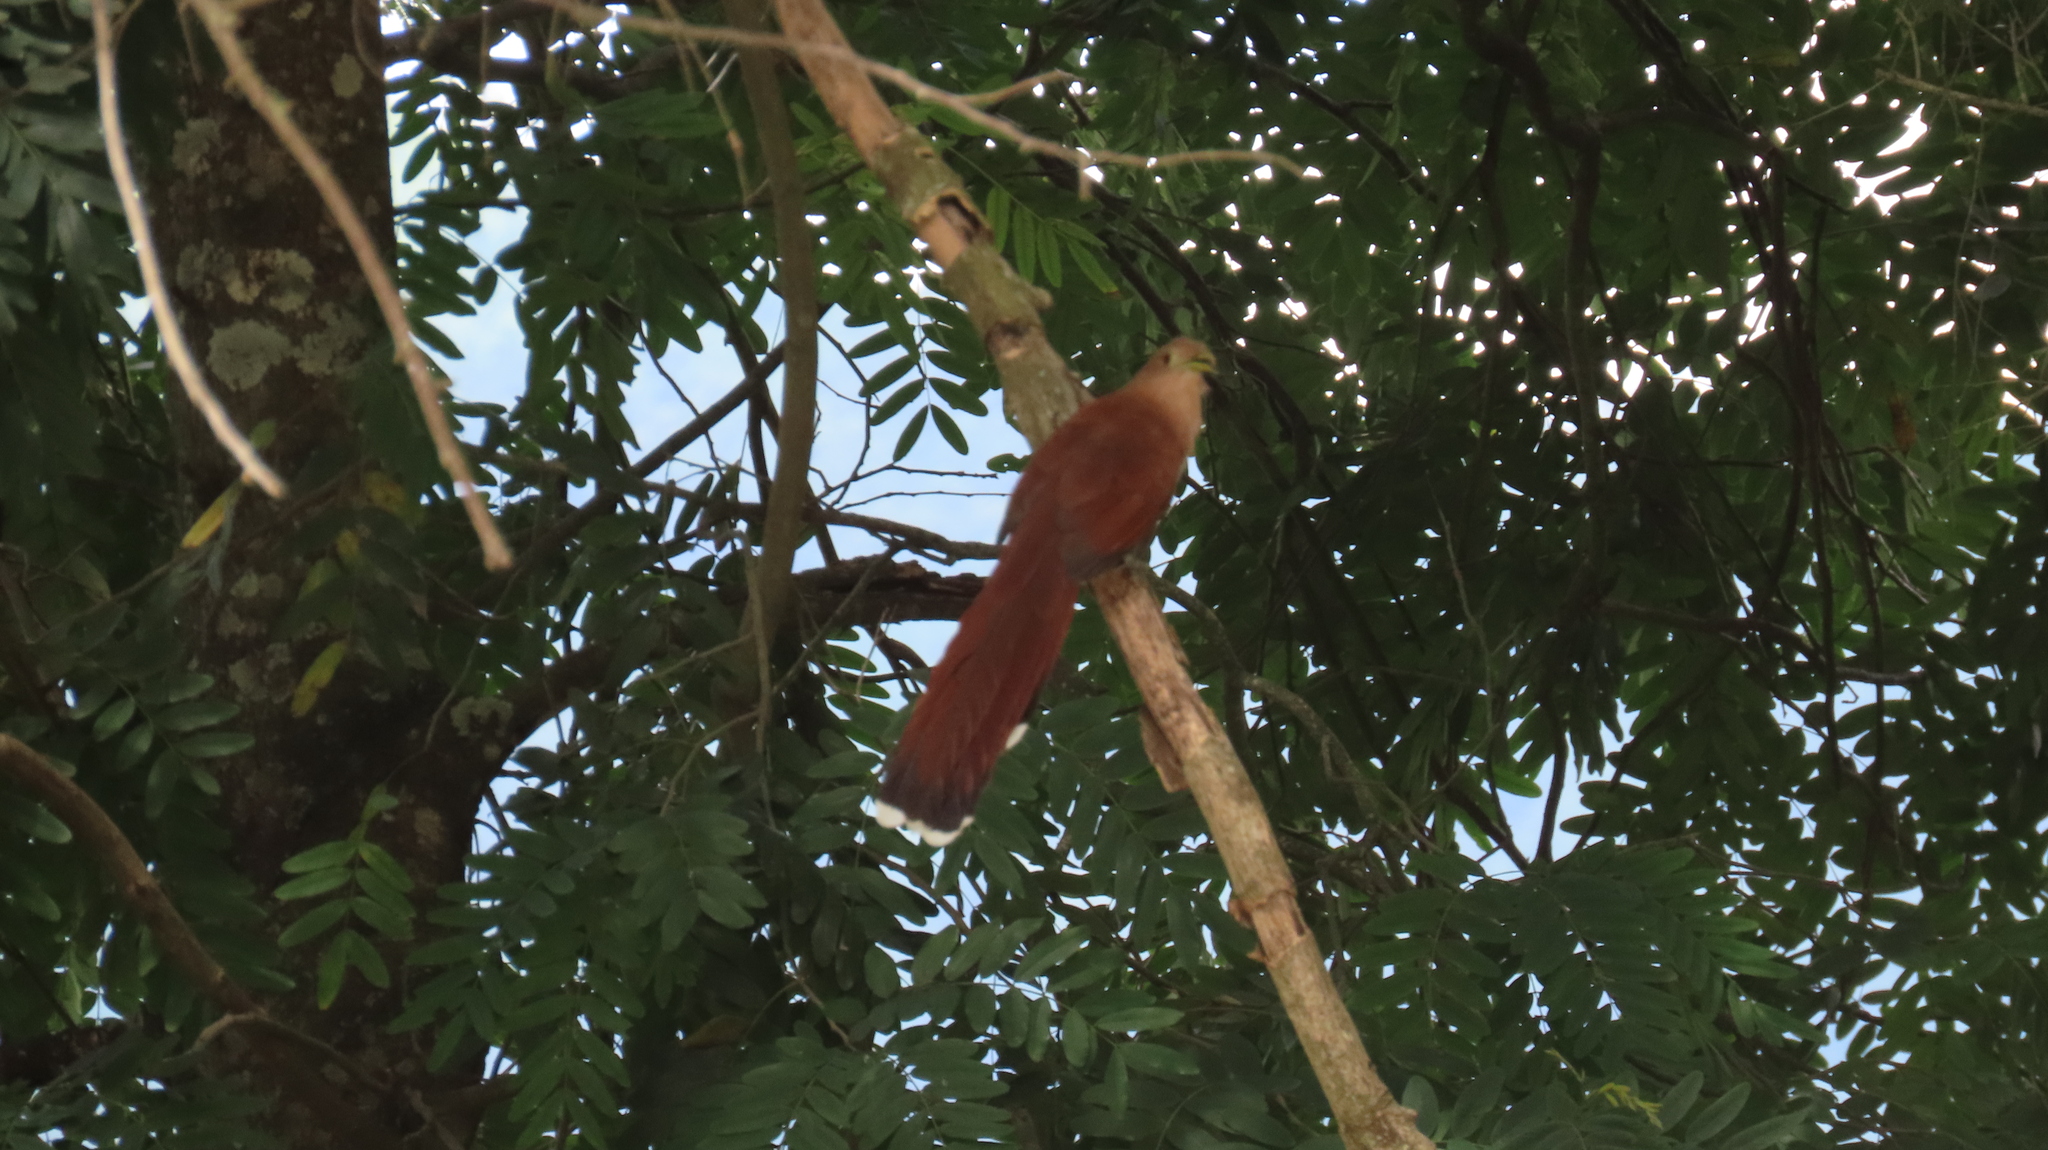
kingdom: Animalia
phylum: Chordata
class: Aves
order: Cuculiformes
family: Cuculidae
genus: Piaya
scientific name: Piaya cayana
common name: Squirrel cuckoo
